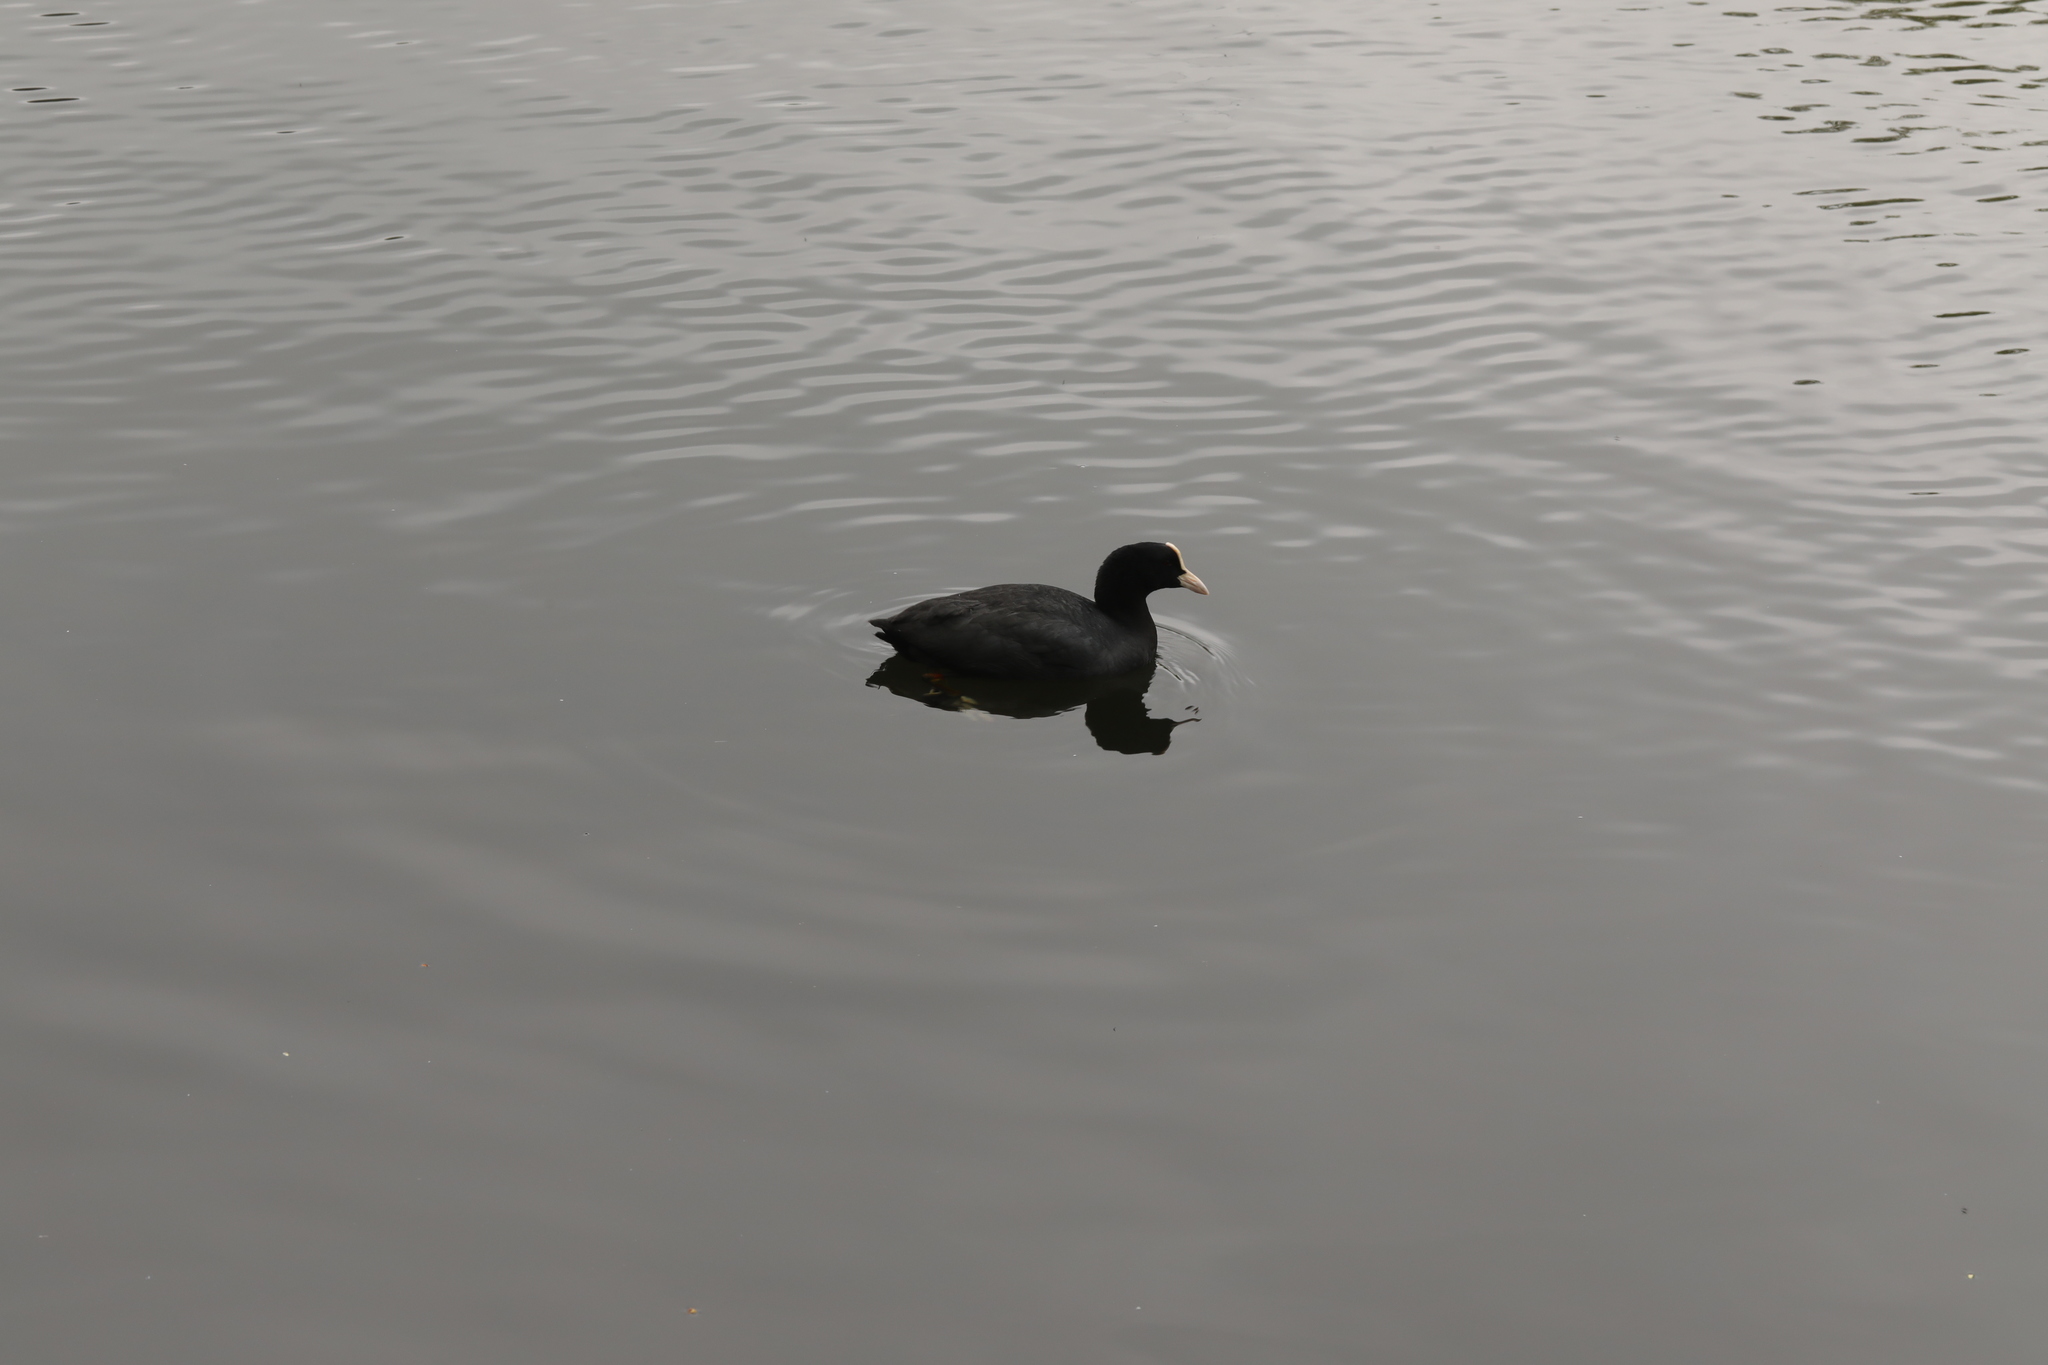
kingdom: Animalia
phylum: Chordata
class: Aves
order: Gruiformes
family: Rallidae
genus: Fulica
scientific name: Fulica atra
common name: Eurasian coot
